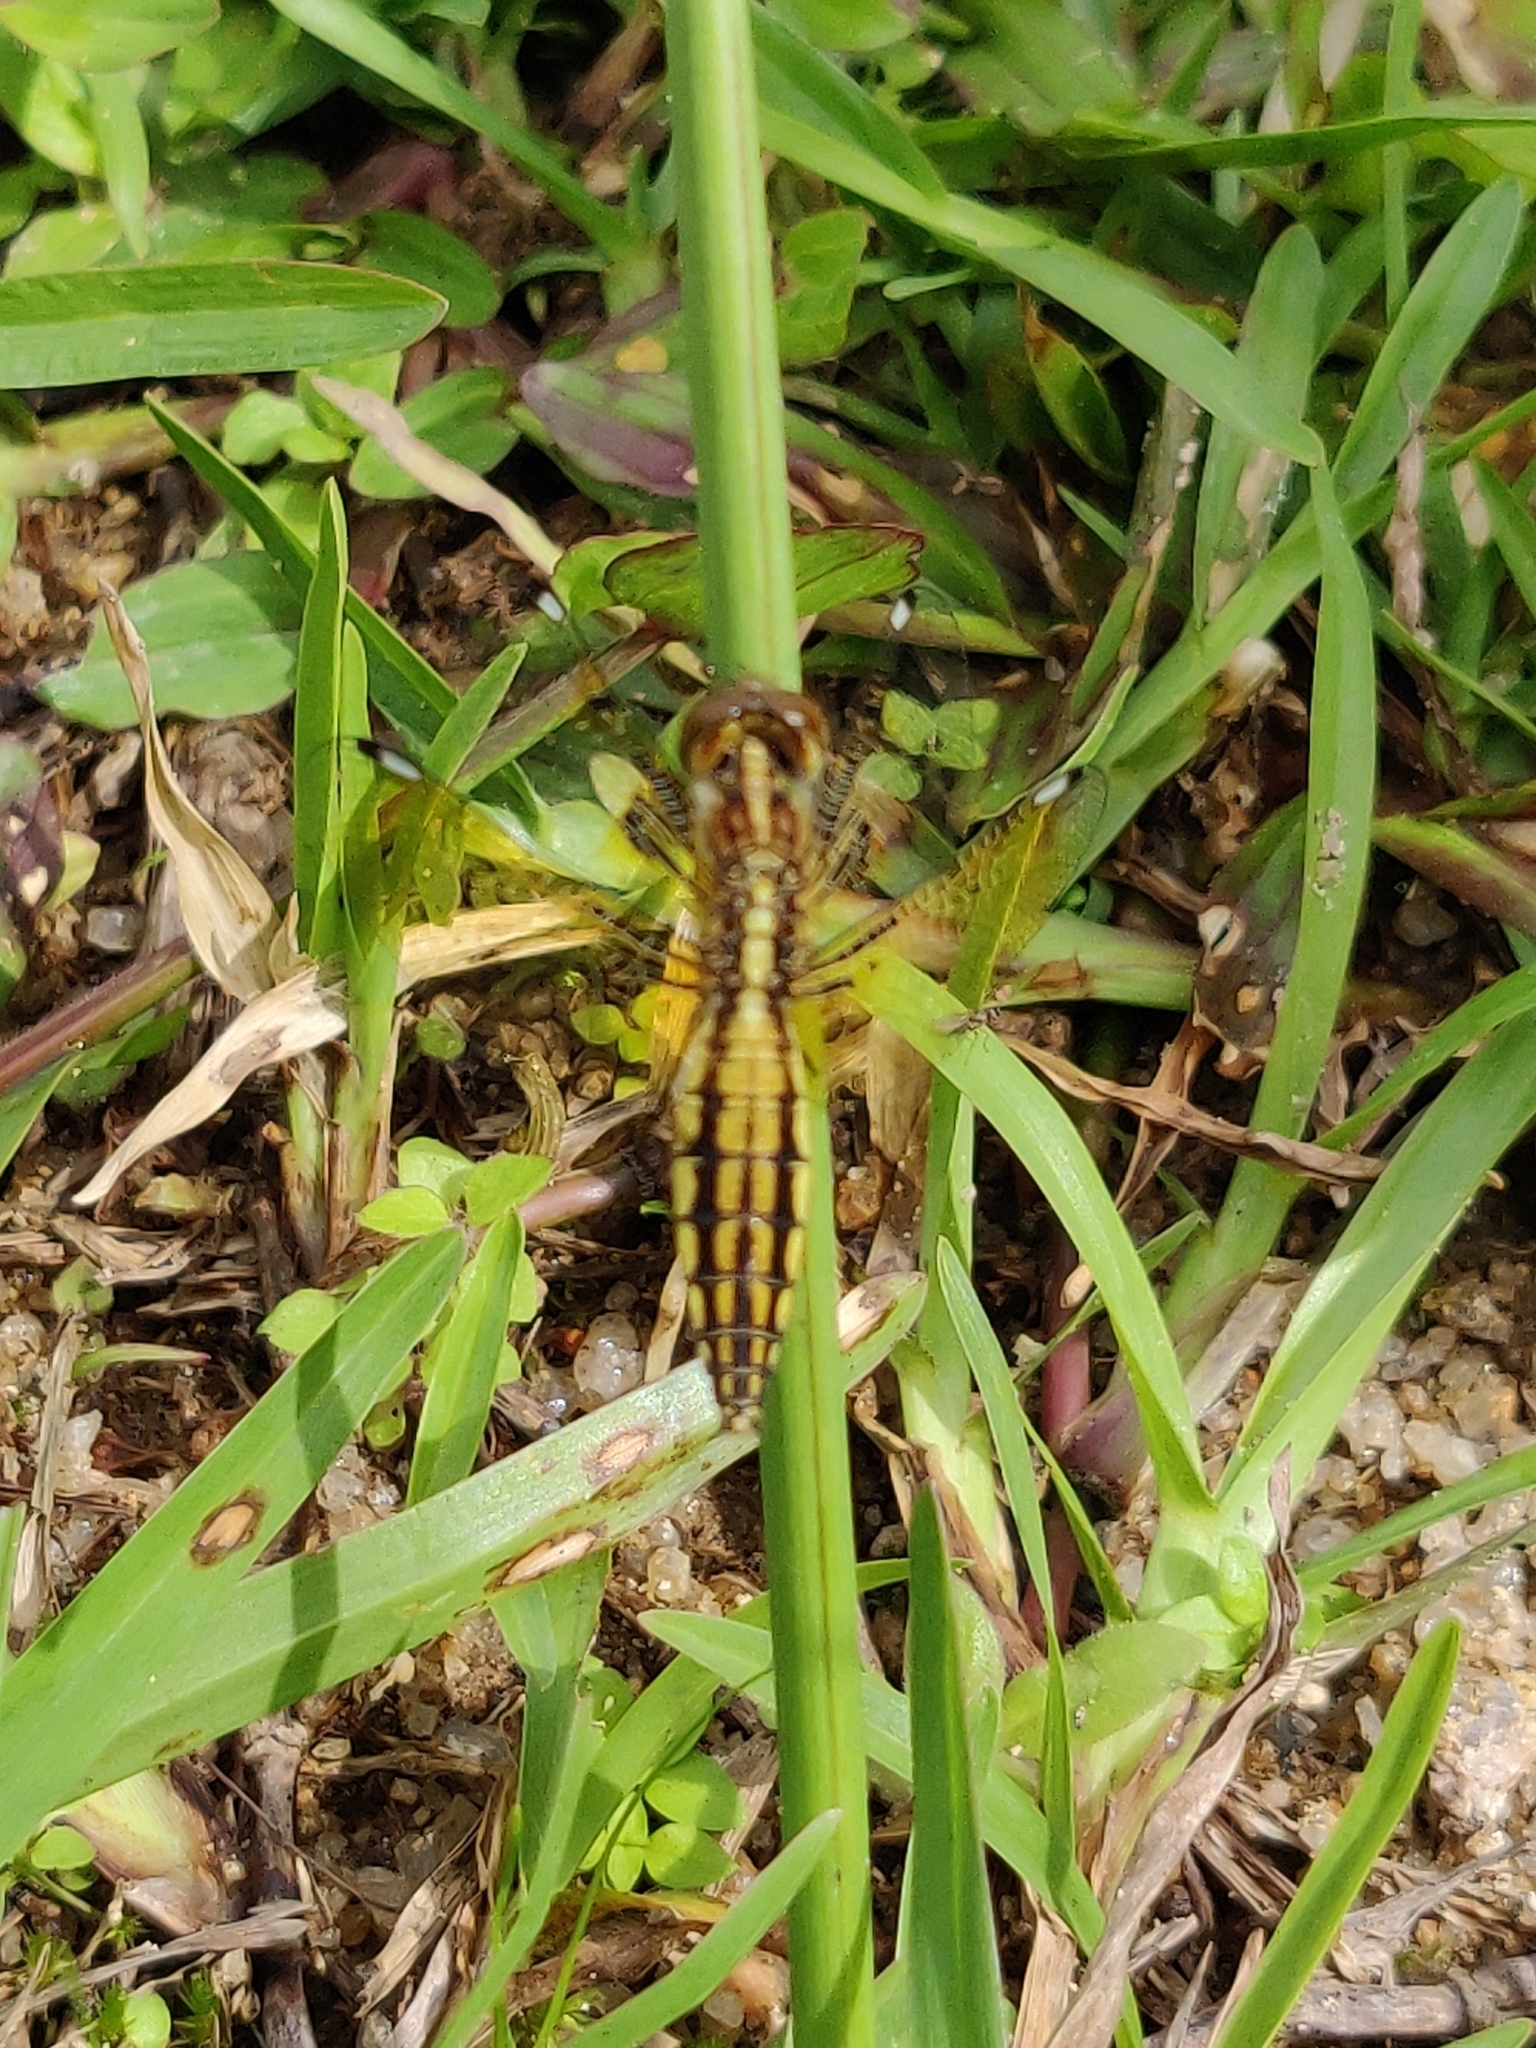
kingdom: Animalia
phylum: Arthropoda
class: Insecta
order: Odonata
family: Libellulidae
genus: Palpopleura
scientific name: Palpopleura sexmaculata
